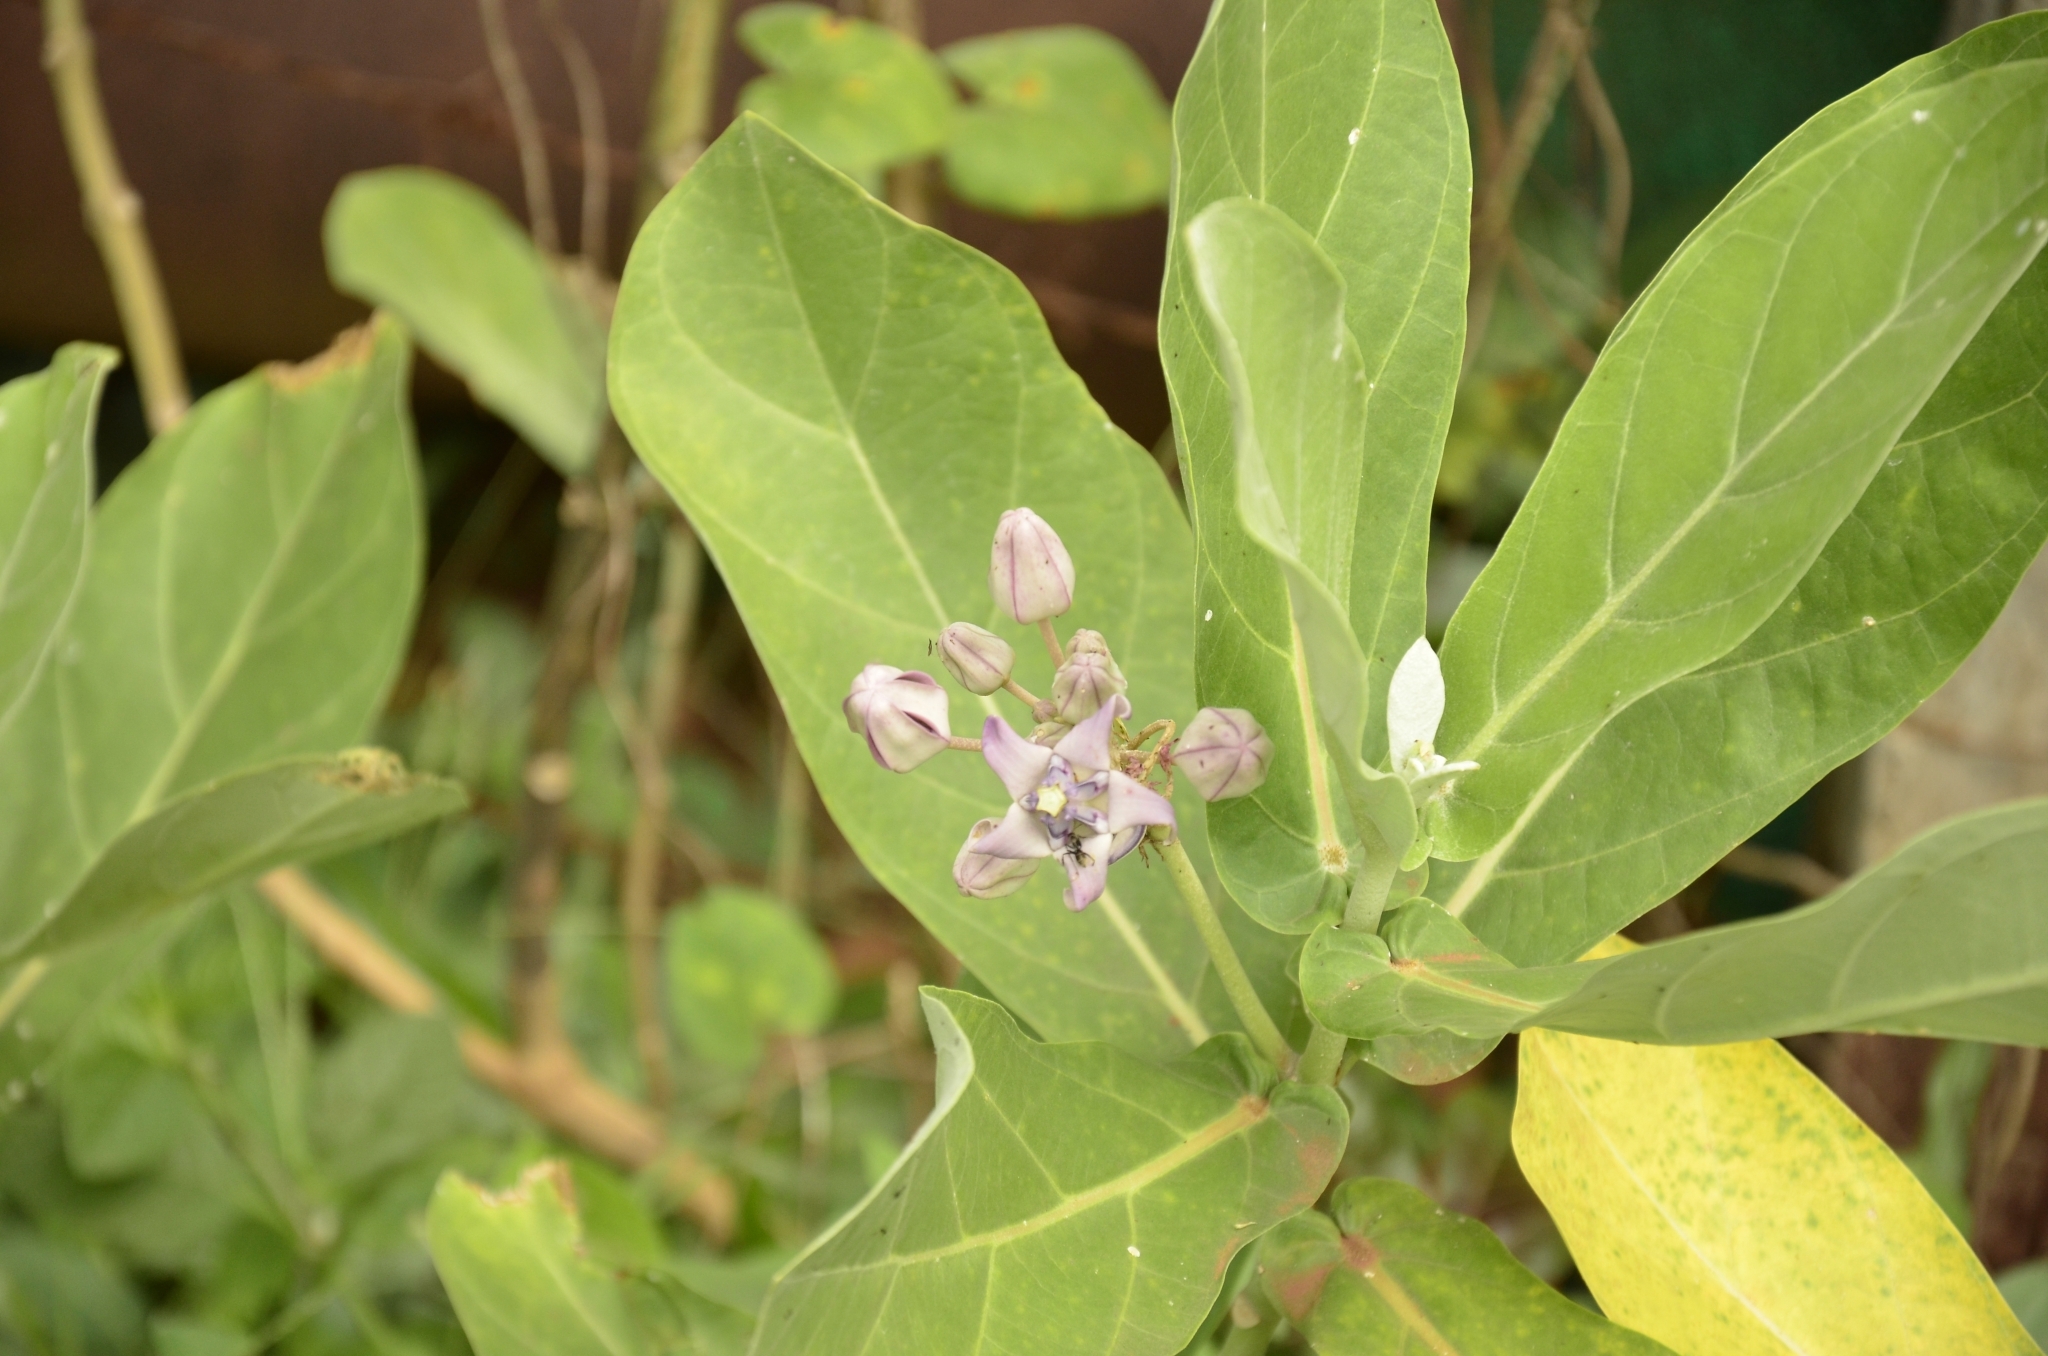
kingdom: Plantae
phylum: Tracheophyta
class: Magnoliopsida
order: Gentianales
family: Apocynaceae
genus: Calotropis
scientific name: Calotropis gigantea
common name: Crown flower
